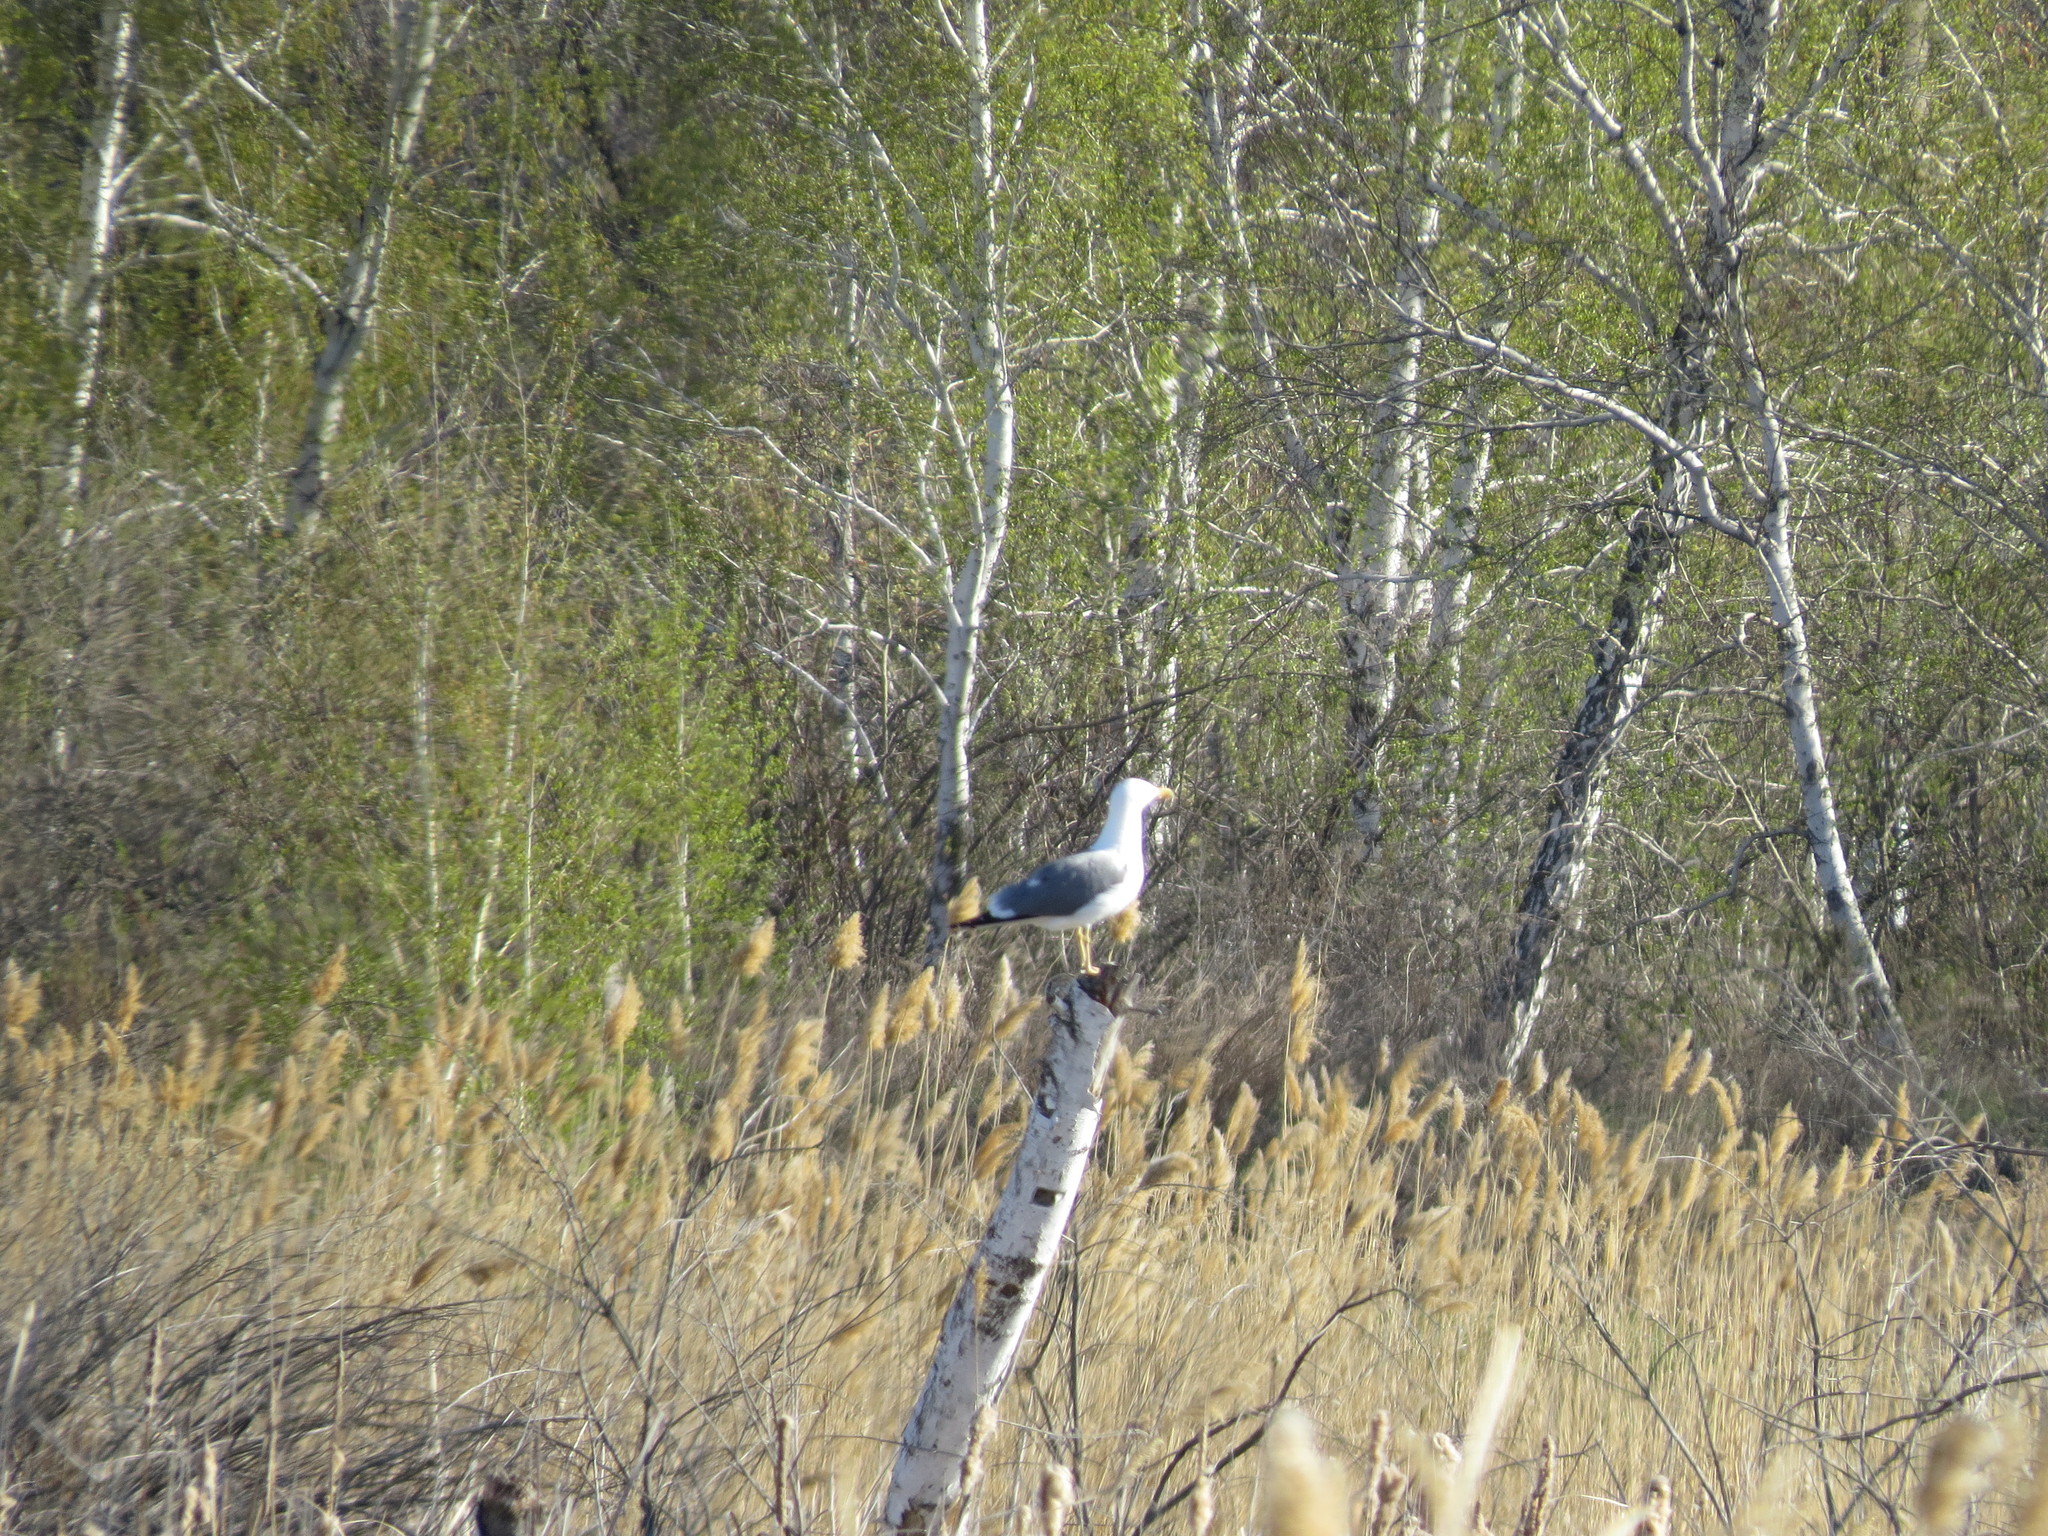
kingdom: Animalia
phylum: Chordata
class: Aves
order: Charadriiformes
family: Laridae
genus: Larus
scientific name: Larus fuscus
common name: Lesser black-backed gull
